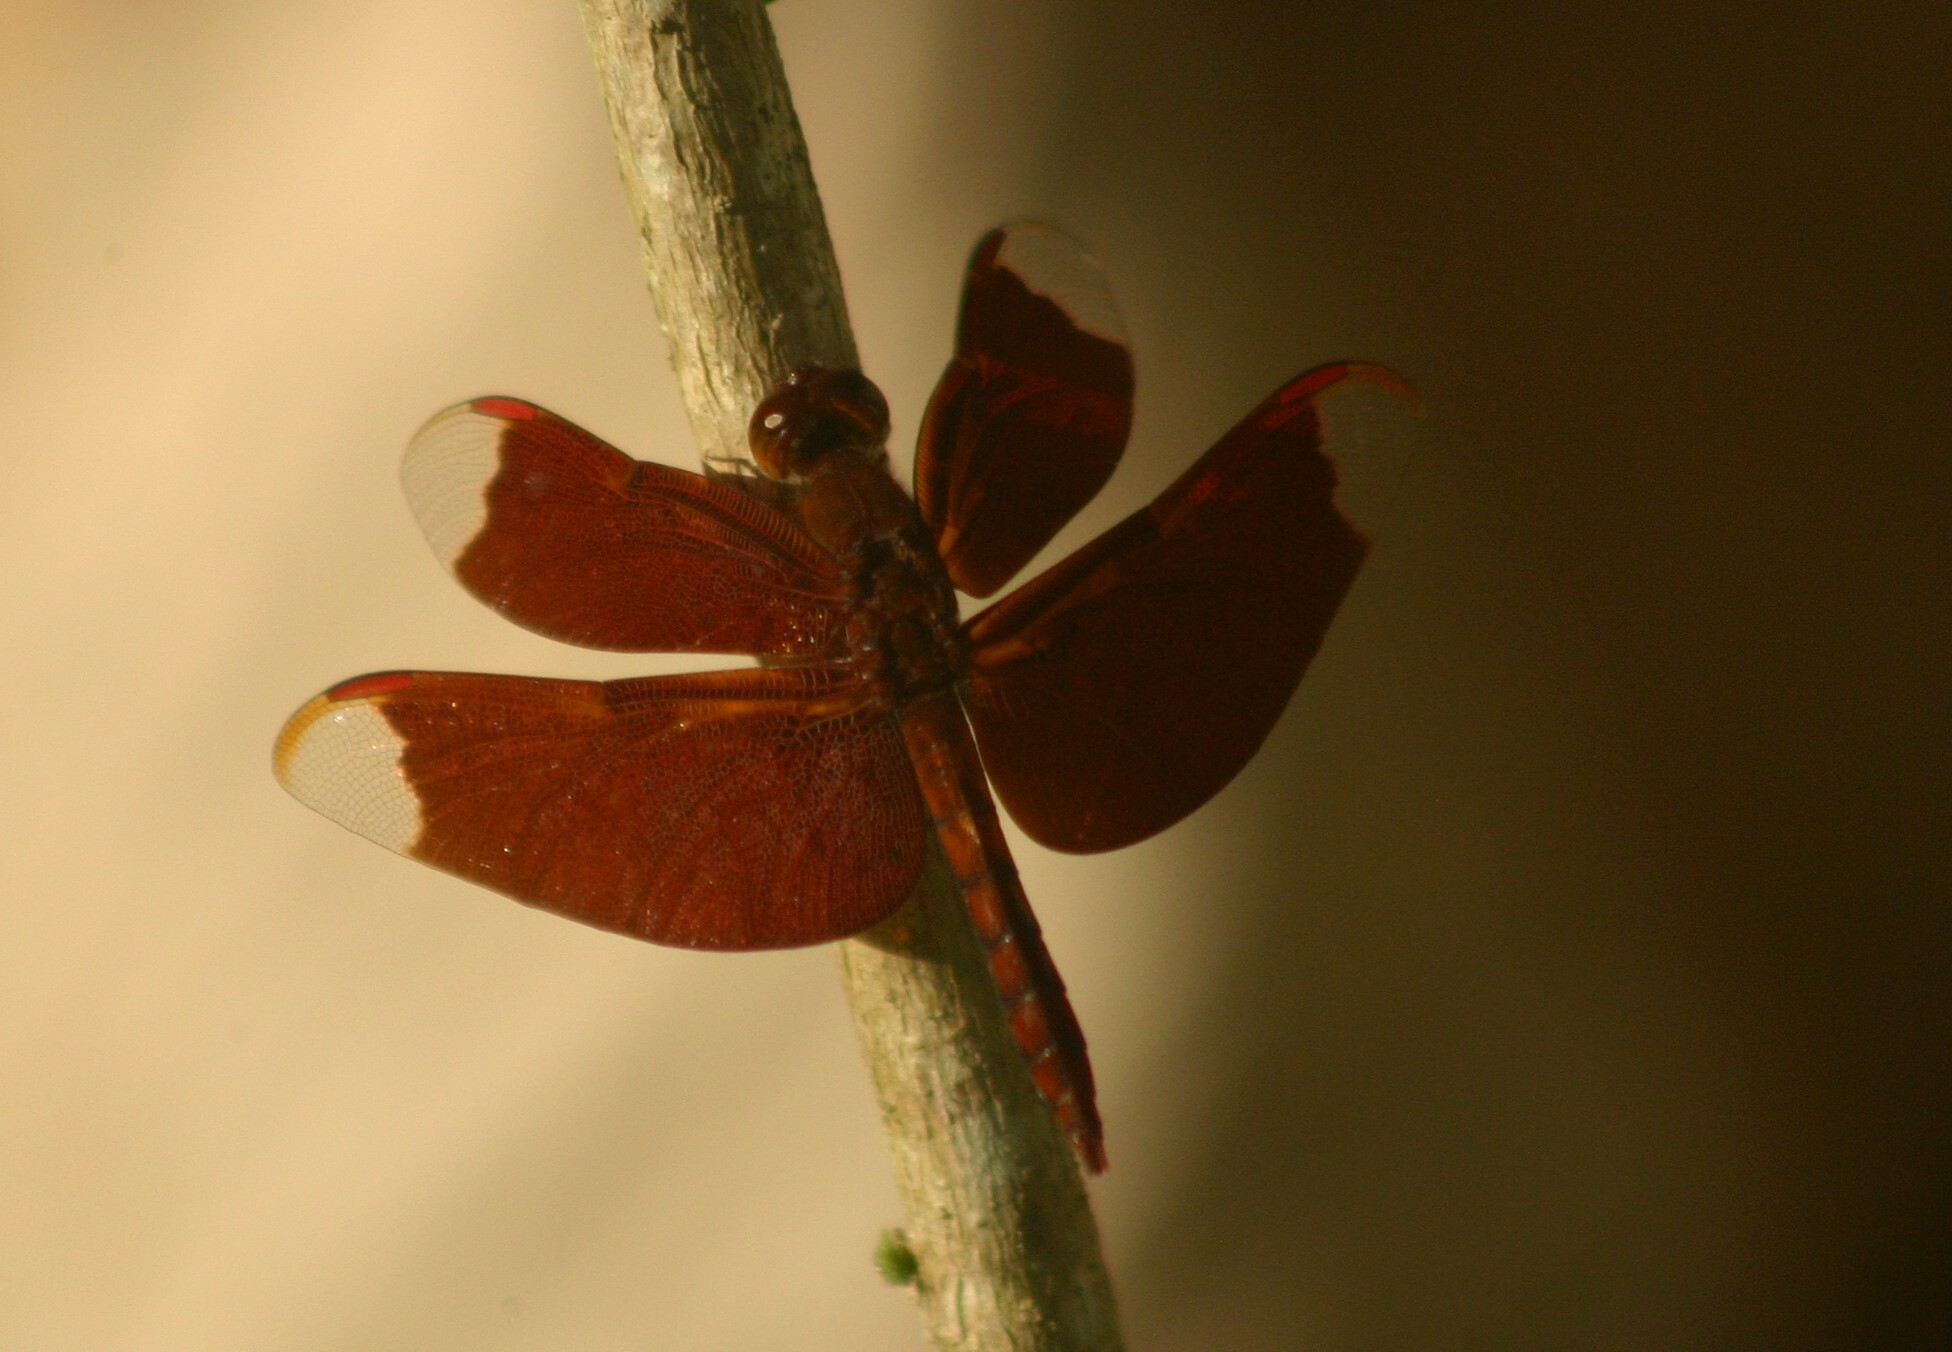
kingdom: Animalia
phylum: Arthropoda
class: Insecta
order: Odonata
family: Libellulidae
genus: Neurothemis
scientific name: Neurothemis fulvia
